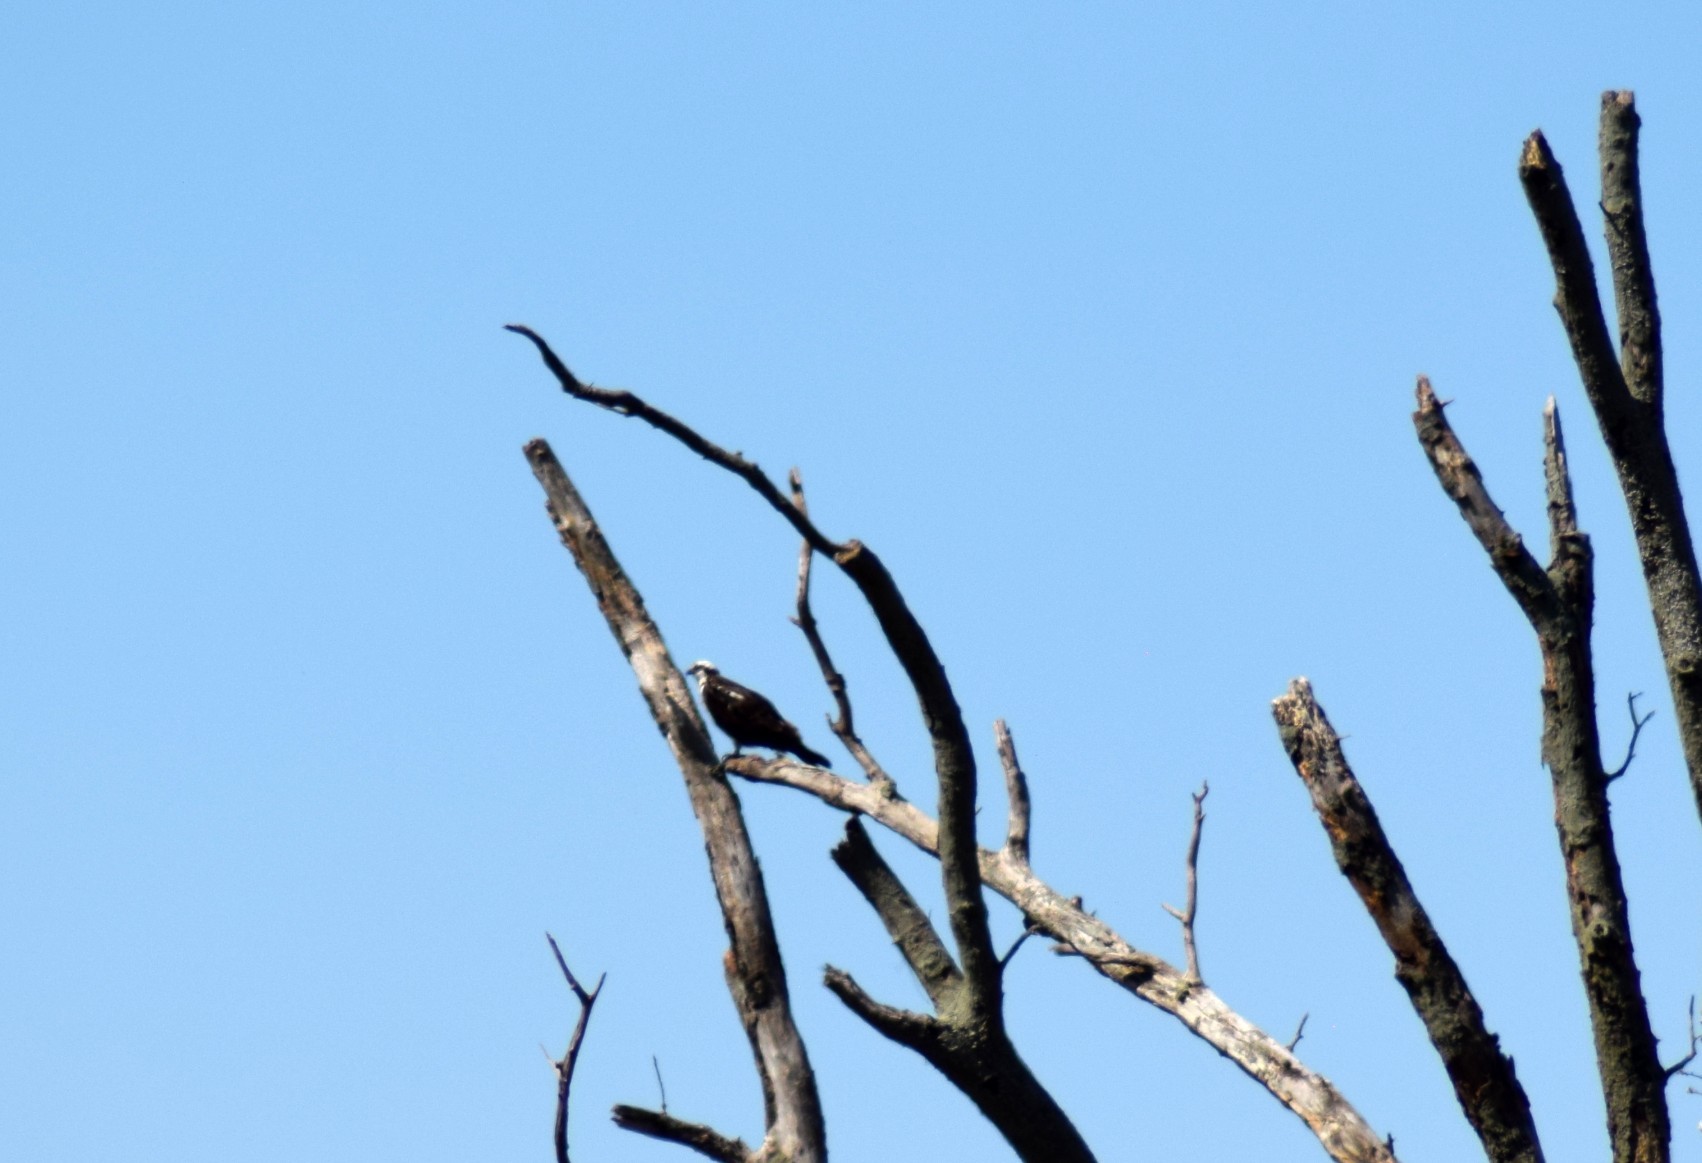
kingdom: Animalia
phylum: Chordata
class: Aves
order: Accipitriformes
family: Pandionidae
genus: Pandion
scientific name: Pandion haliaetus
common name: Osprey
